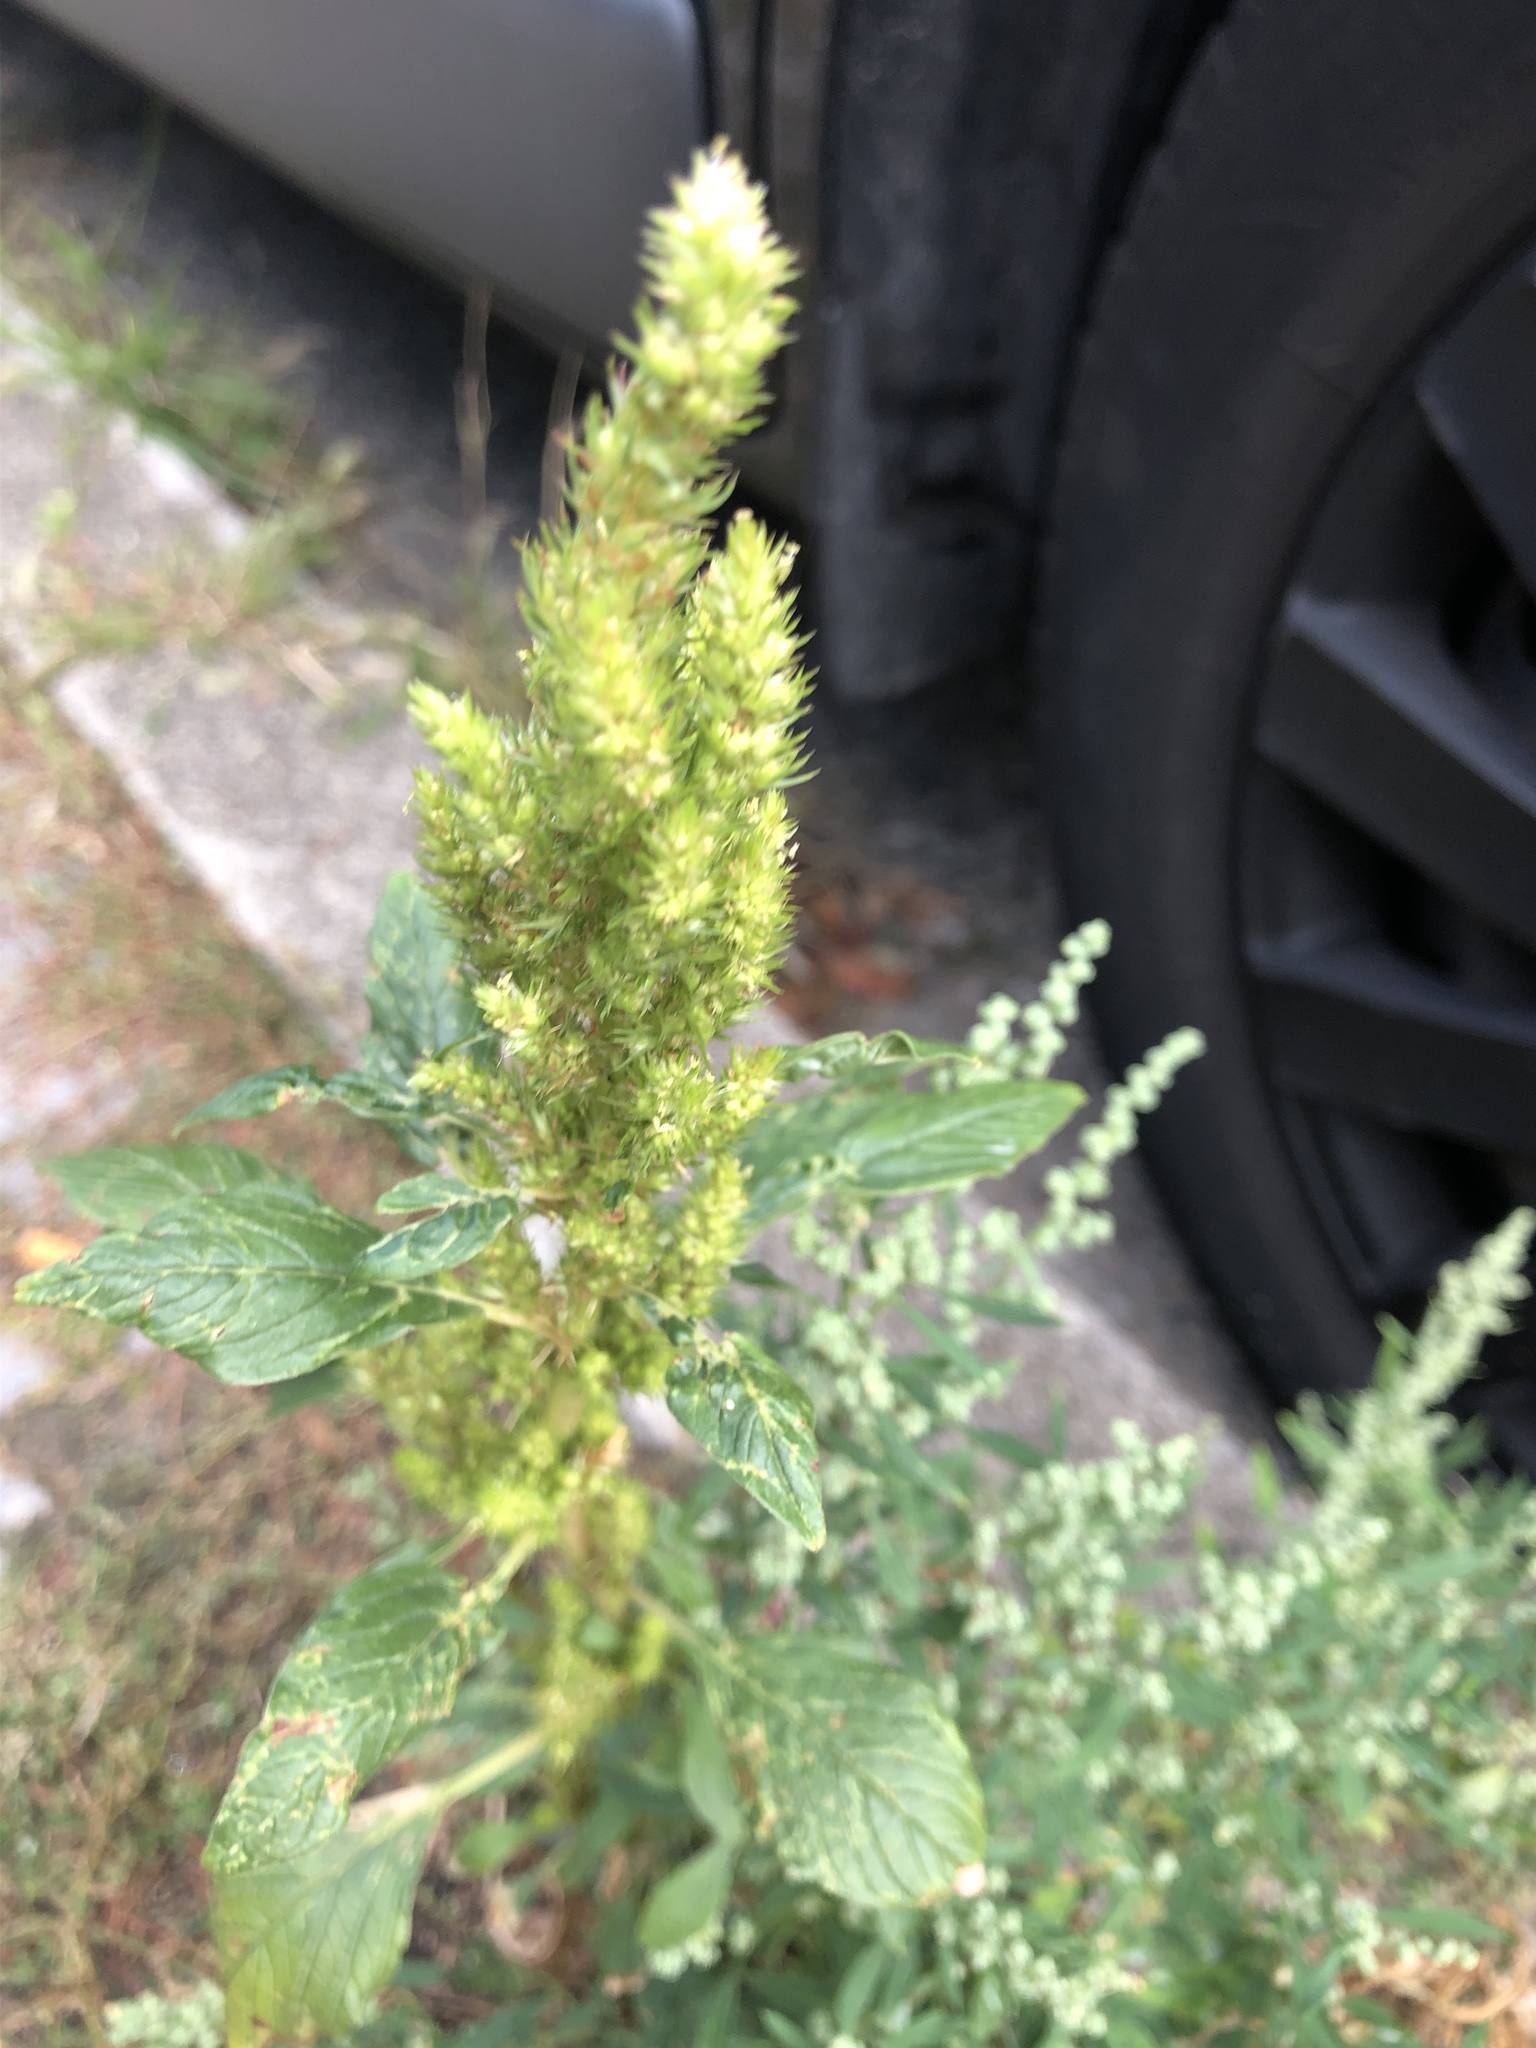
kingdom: Plantae
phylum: Tracheophyta
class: Magnoliopsida
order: Caryophyllales
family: Amaranthaceae
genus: Amaranthus
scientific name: Amaranthus retroflexus
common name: Redroot amaranth
